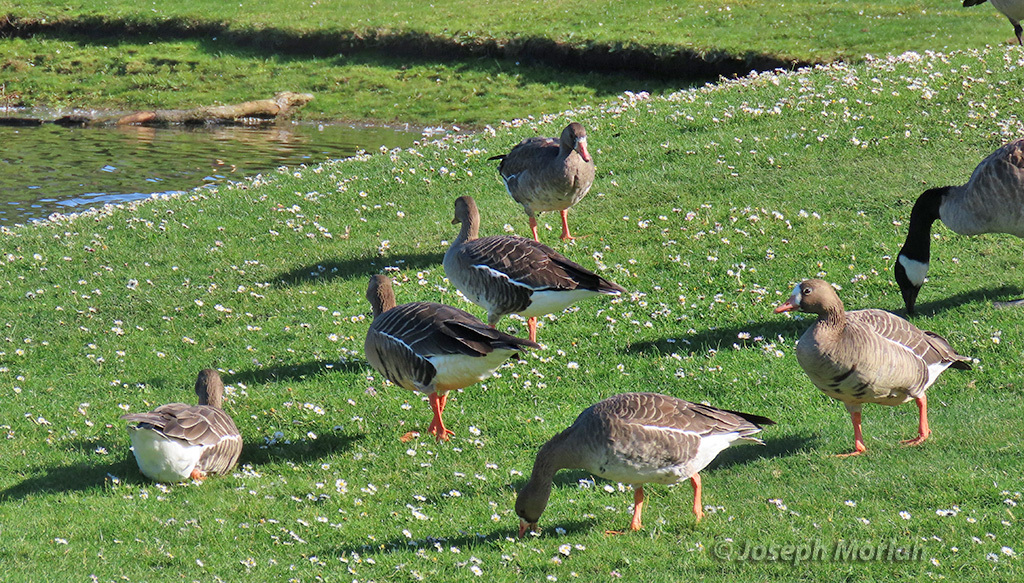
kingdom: Animalia
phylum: Chordata
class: Aves
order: Anseriformes
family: Anatidae
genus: Anser
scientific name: Anser albifrons
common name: Greater white-fronted goose
